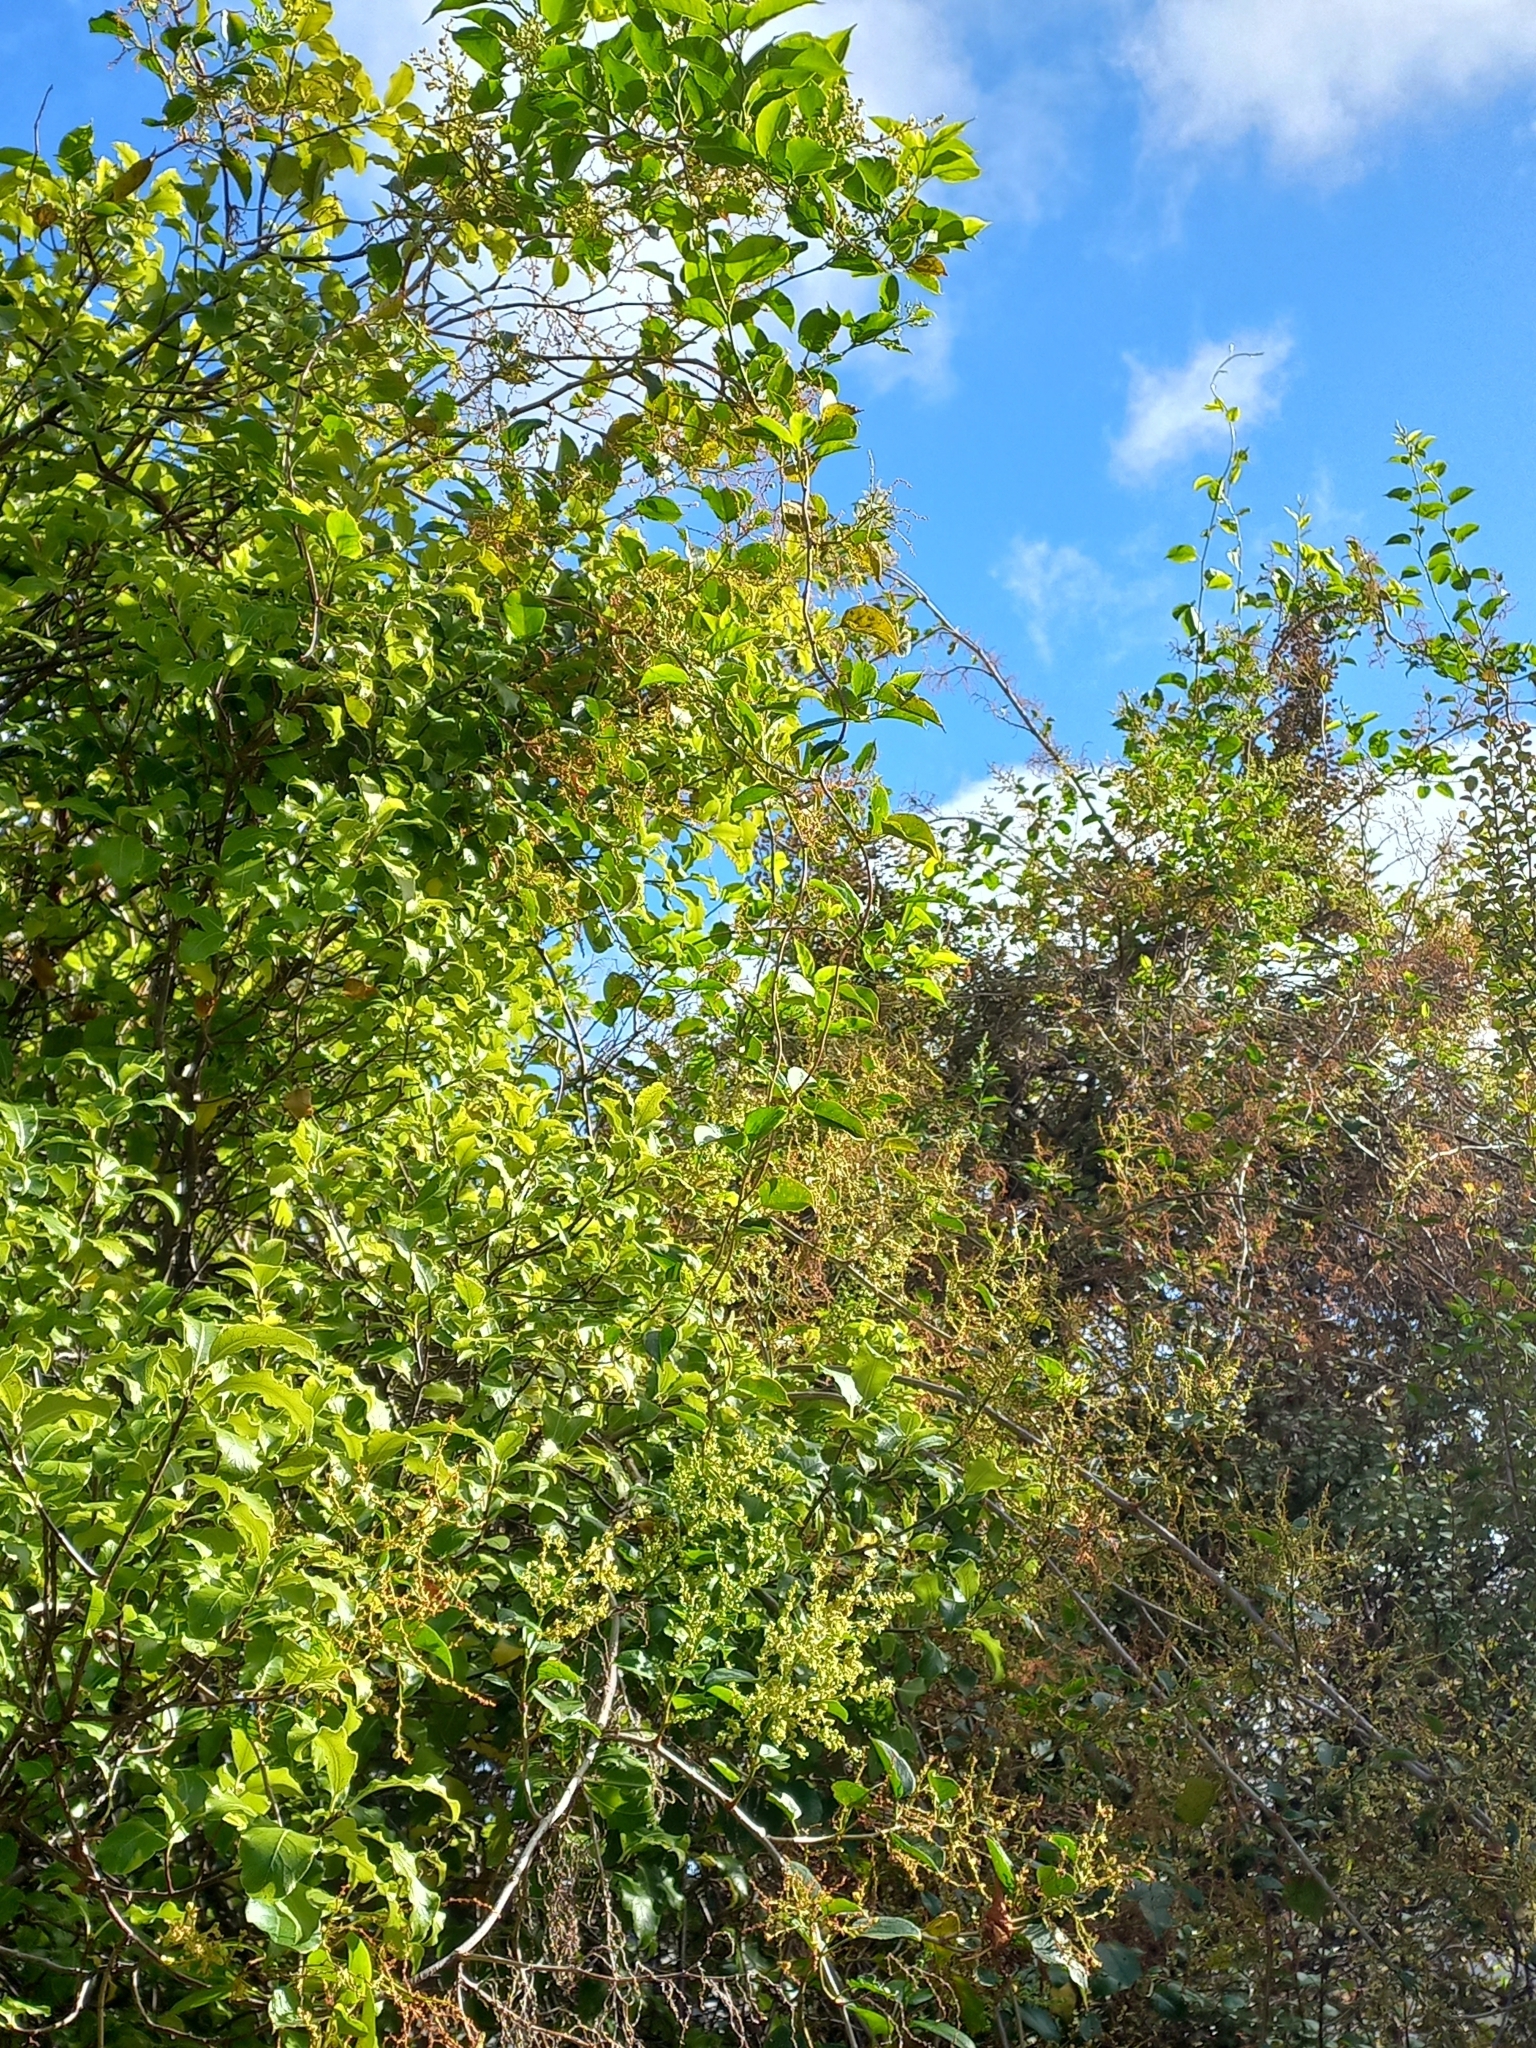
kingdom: Plantae
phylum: Tracheophyta
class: Magnoliopsida
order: Caryophyllales
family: Polygonaceae
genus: Muehlenbeckia
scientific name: Muehlenbeckia australis
